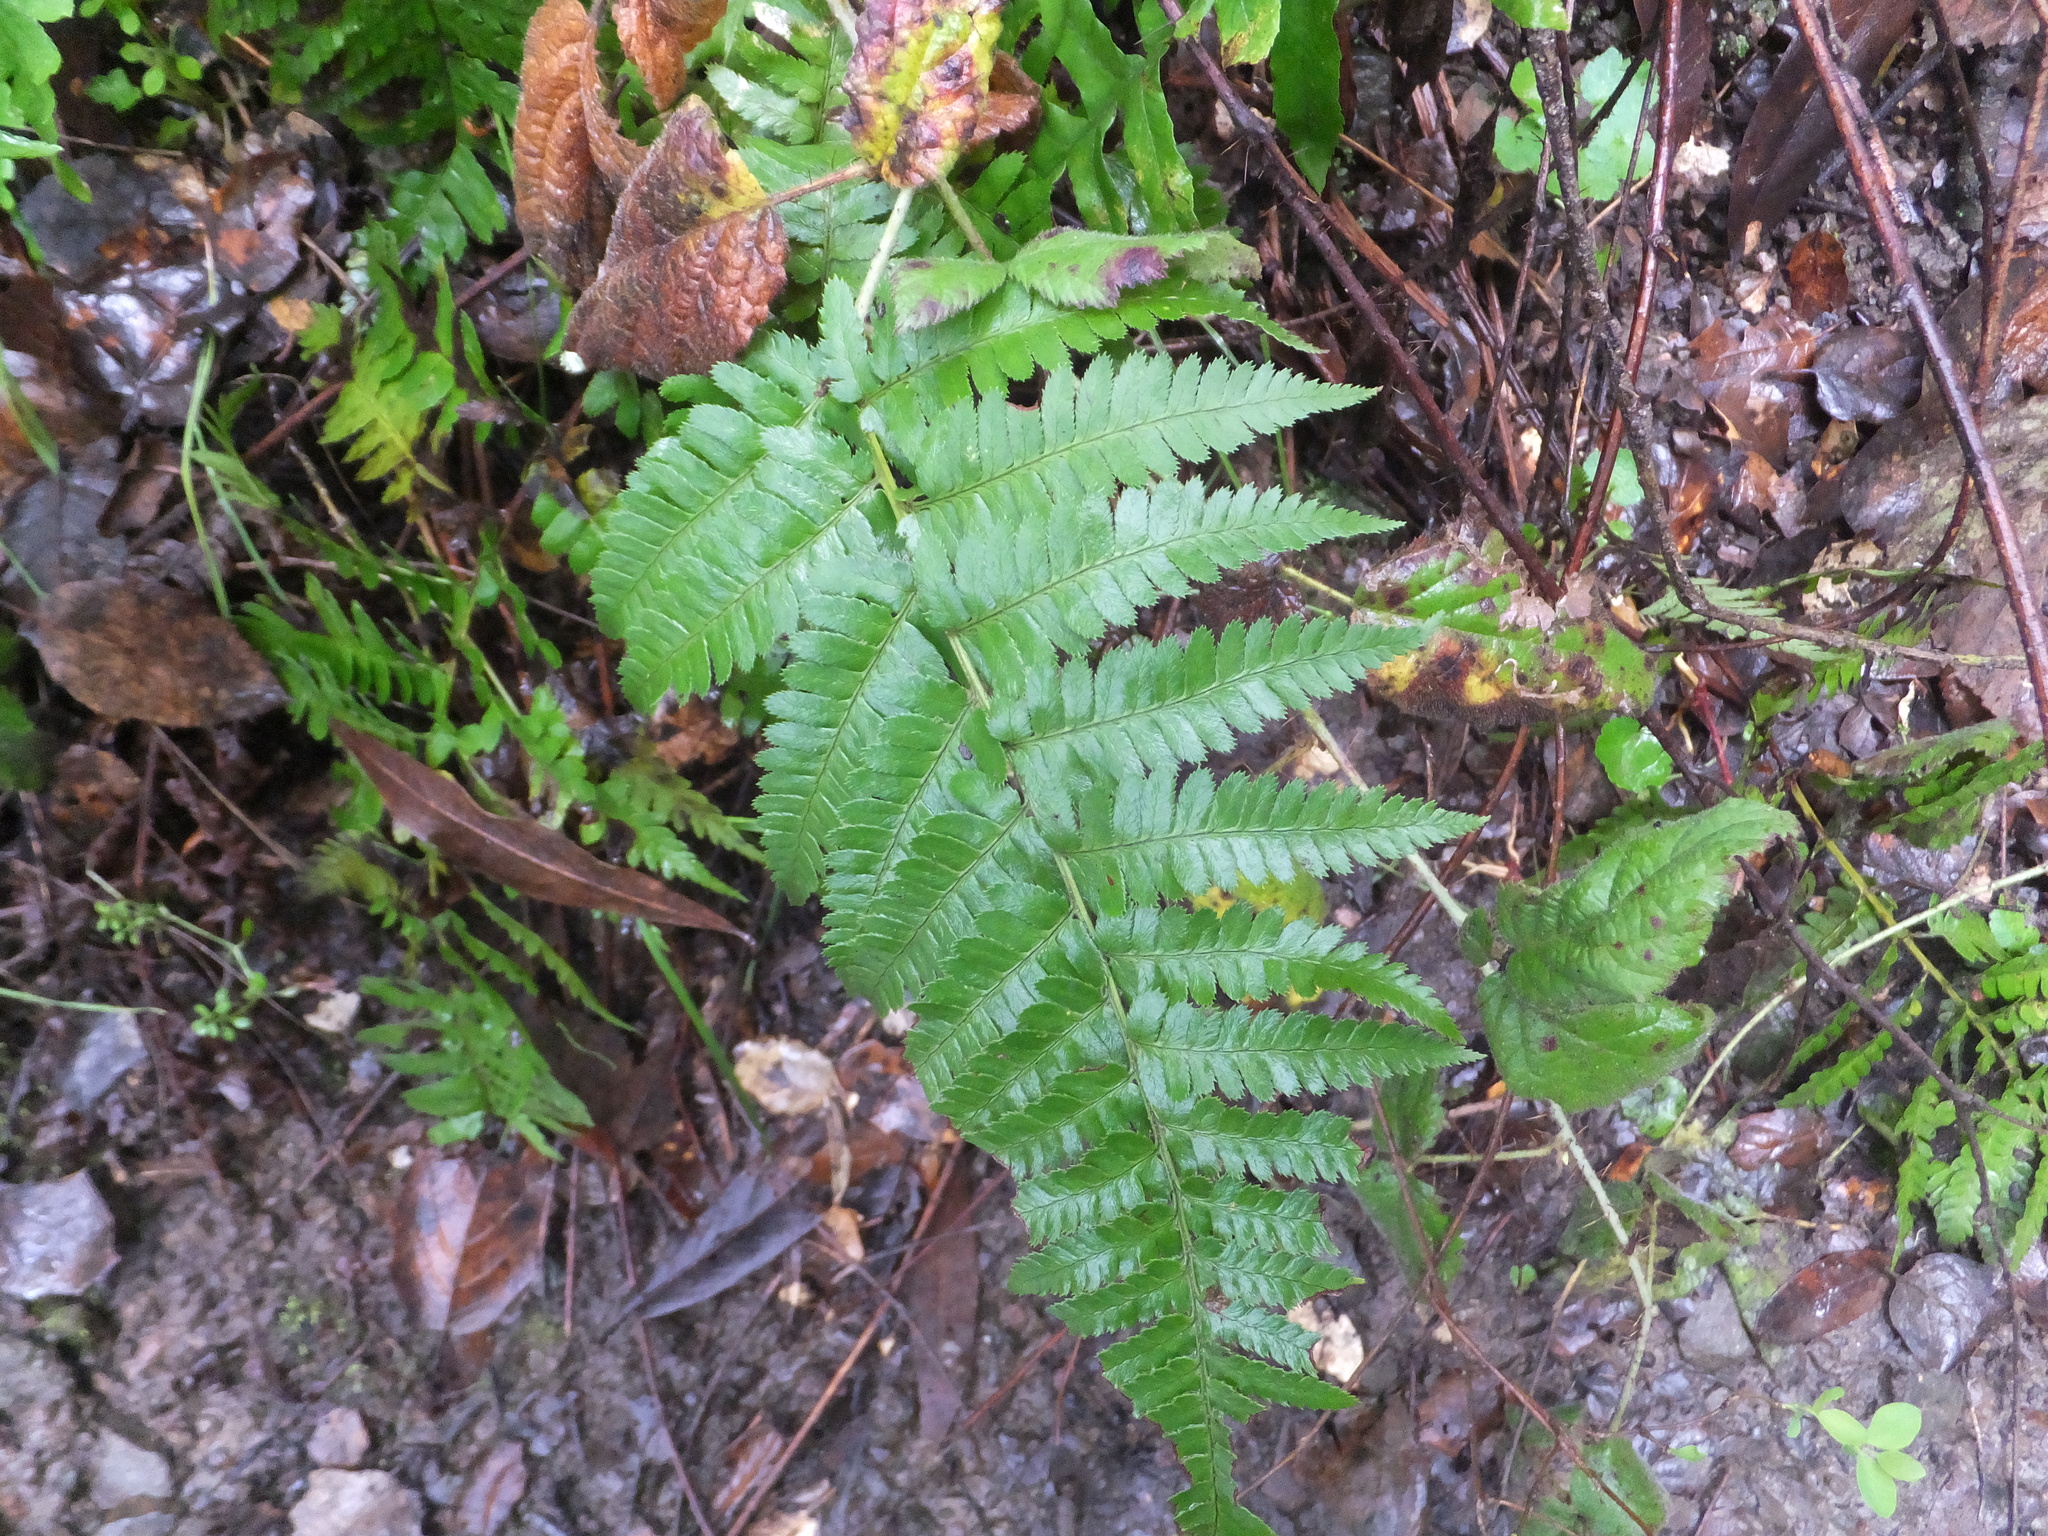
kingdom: Plantae
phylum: Tracheophyta
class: Polypodiopsida
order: Polypodiales
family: Dryopteridaceae
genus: Dryopteris
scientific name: Dryopteris arguta
